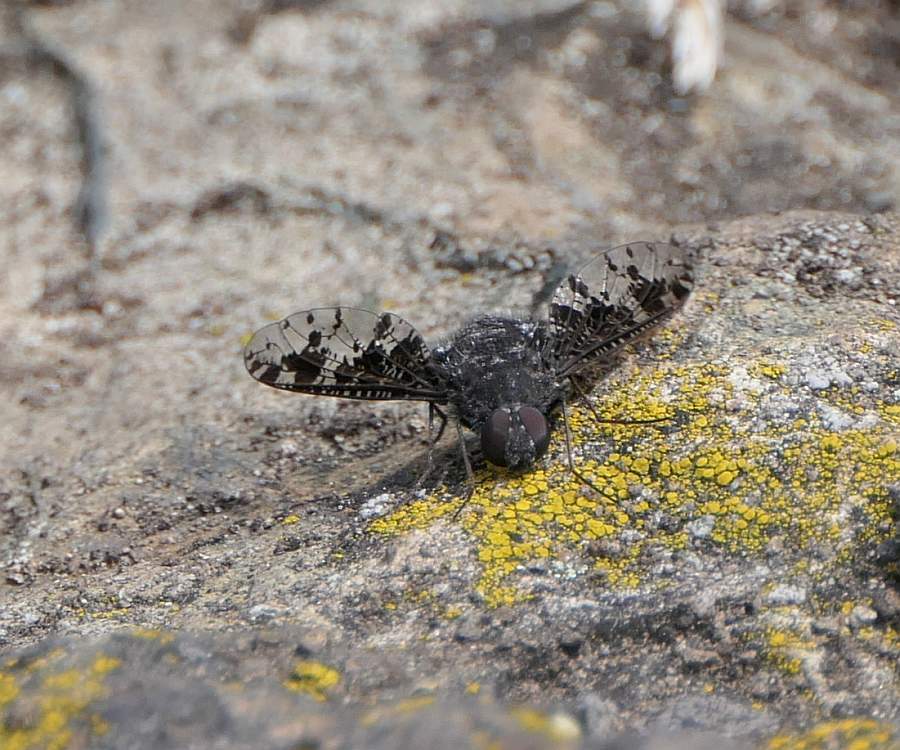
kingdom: Animalia
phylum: Arthropoda
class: Insecta
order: Diptera
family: Bombyliidae
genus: Anthrax
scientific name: Anthrax irroratus
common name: Spotted bee fly
